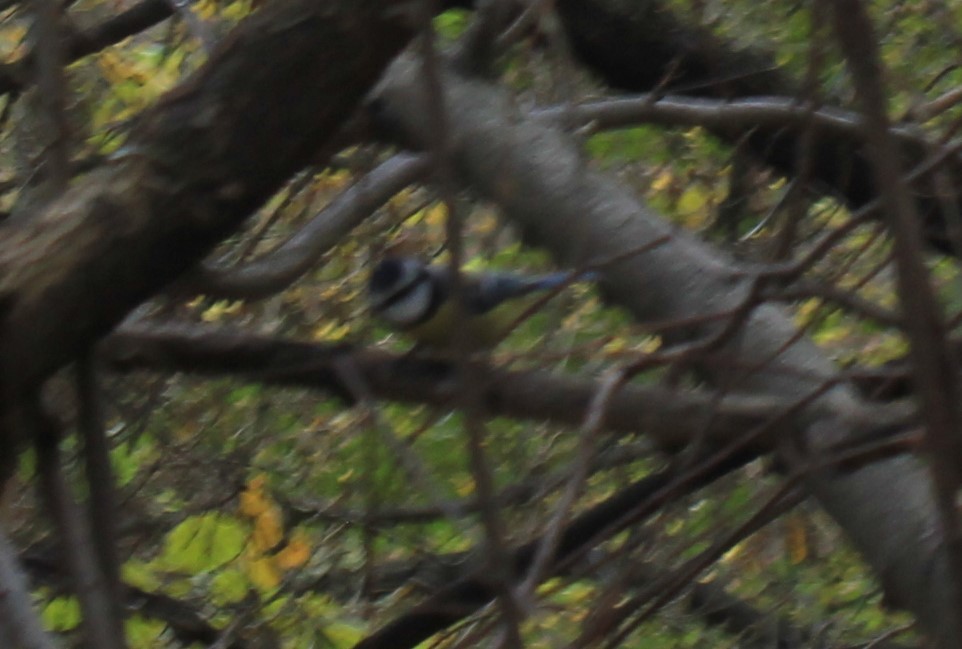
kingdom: Animalia
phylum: Chordata
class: Aves
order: Passeriformes
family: Paridae
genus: Cyanistes
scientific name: Cyanistes caeruleus
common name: Eurasian blue tit
